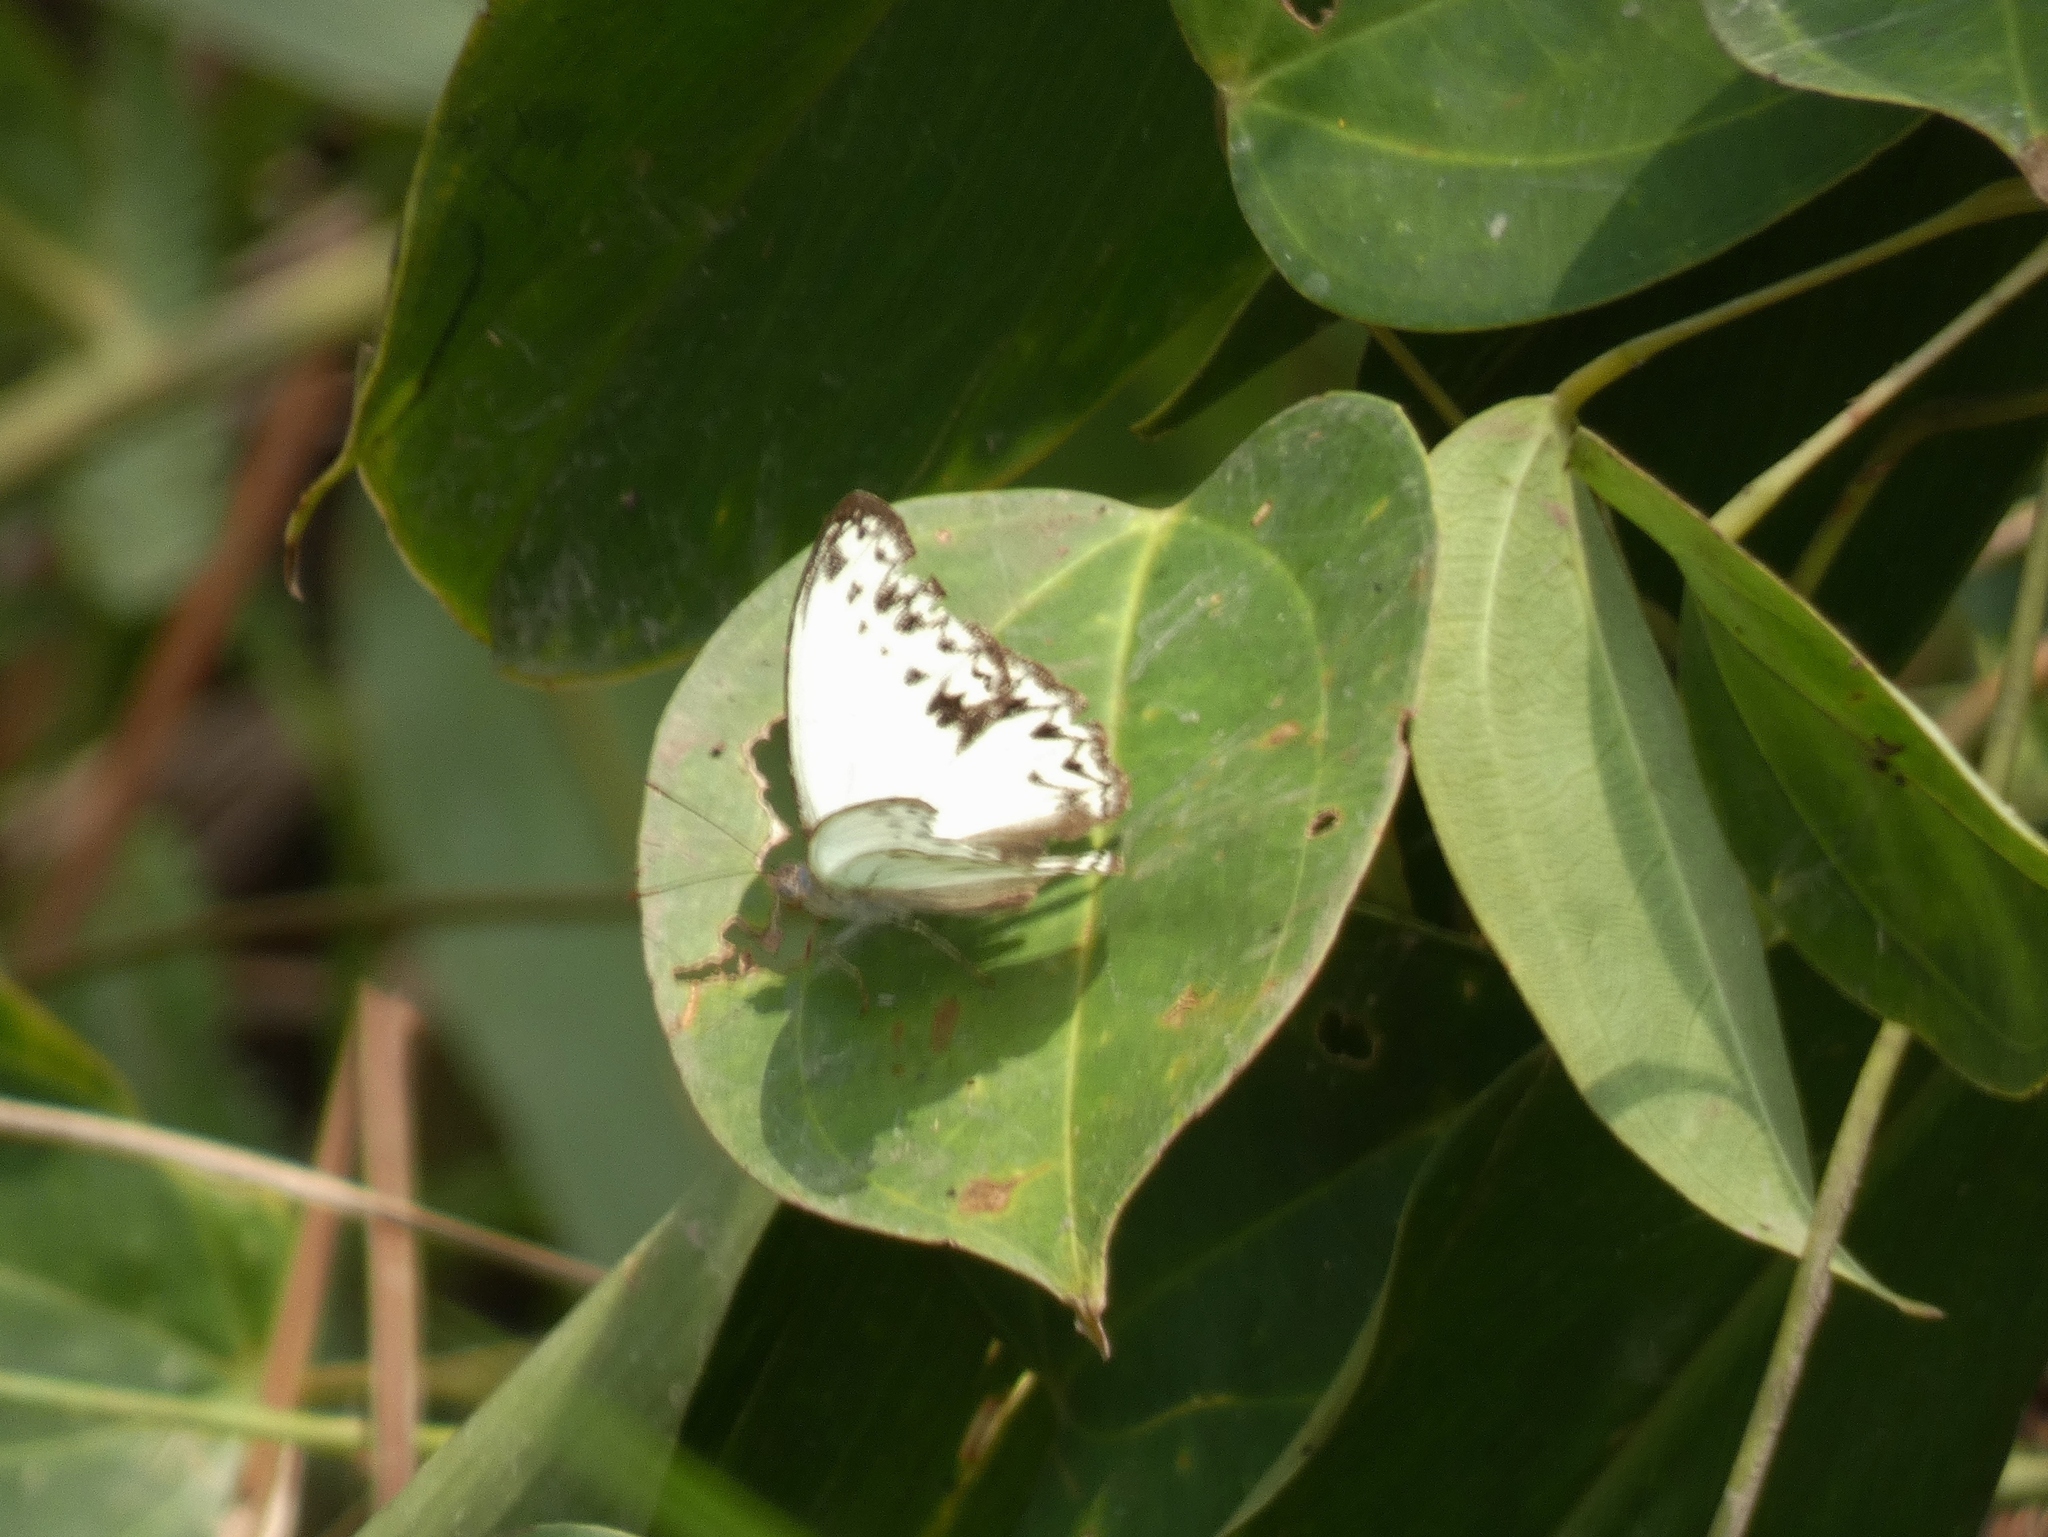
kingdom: Animalia
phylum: Arthropoda
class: Insecta
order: Lepidoptera
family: Nymphalidae
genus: Cymothoe
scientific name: Cymothoe caenis
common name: Common glider
